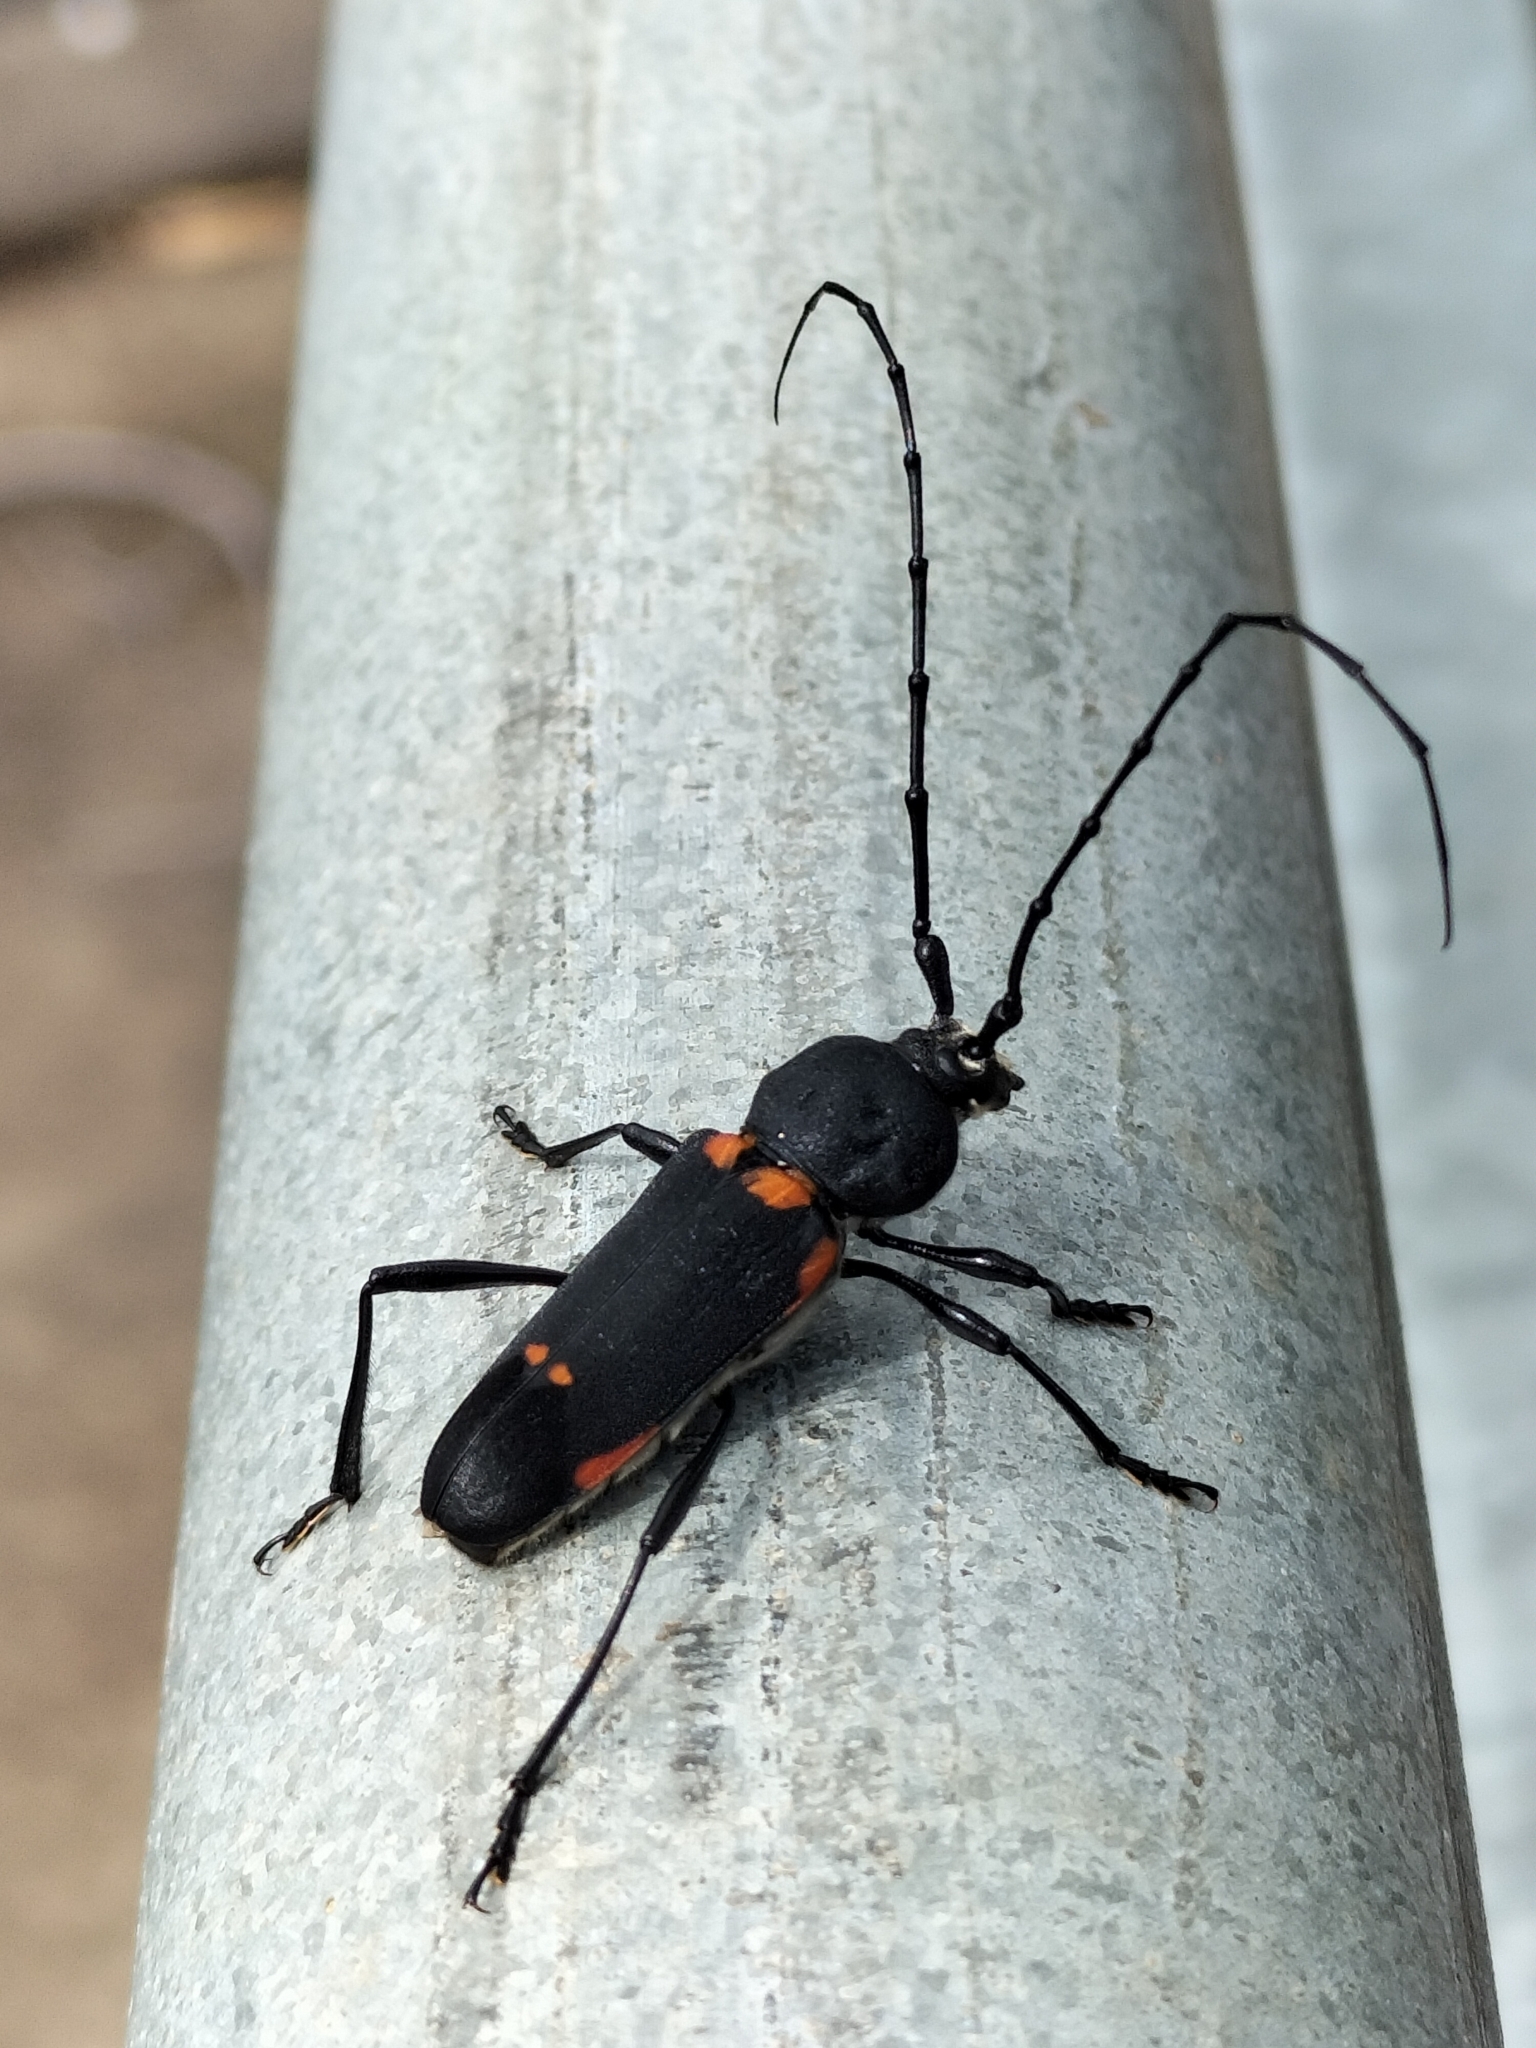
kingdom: Animalia
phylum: Arthropoda
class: Insecta
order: Coleoptera
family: Cerambycidae
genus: Purpuricenus
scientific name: Purpuricenus quadrinotatus
